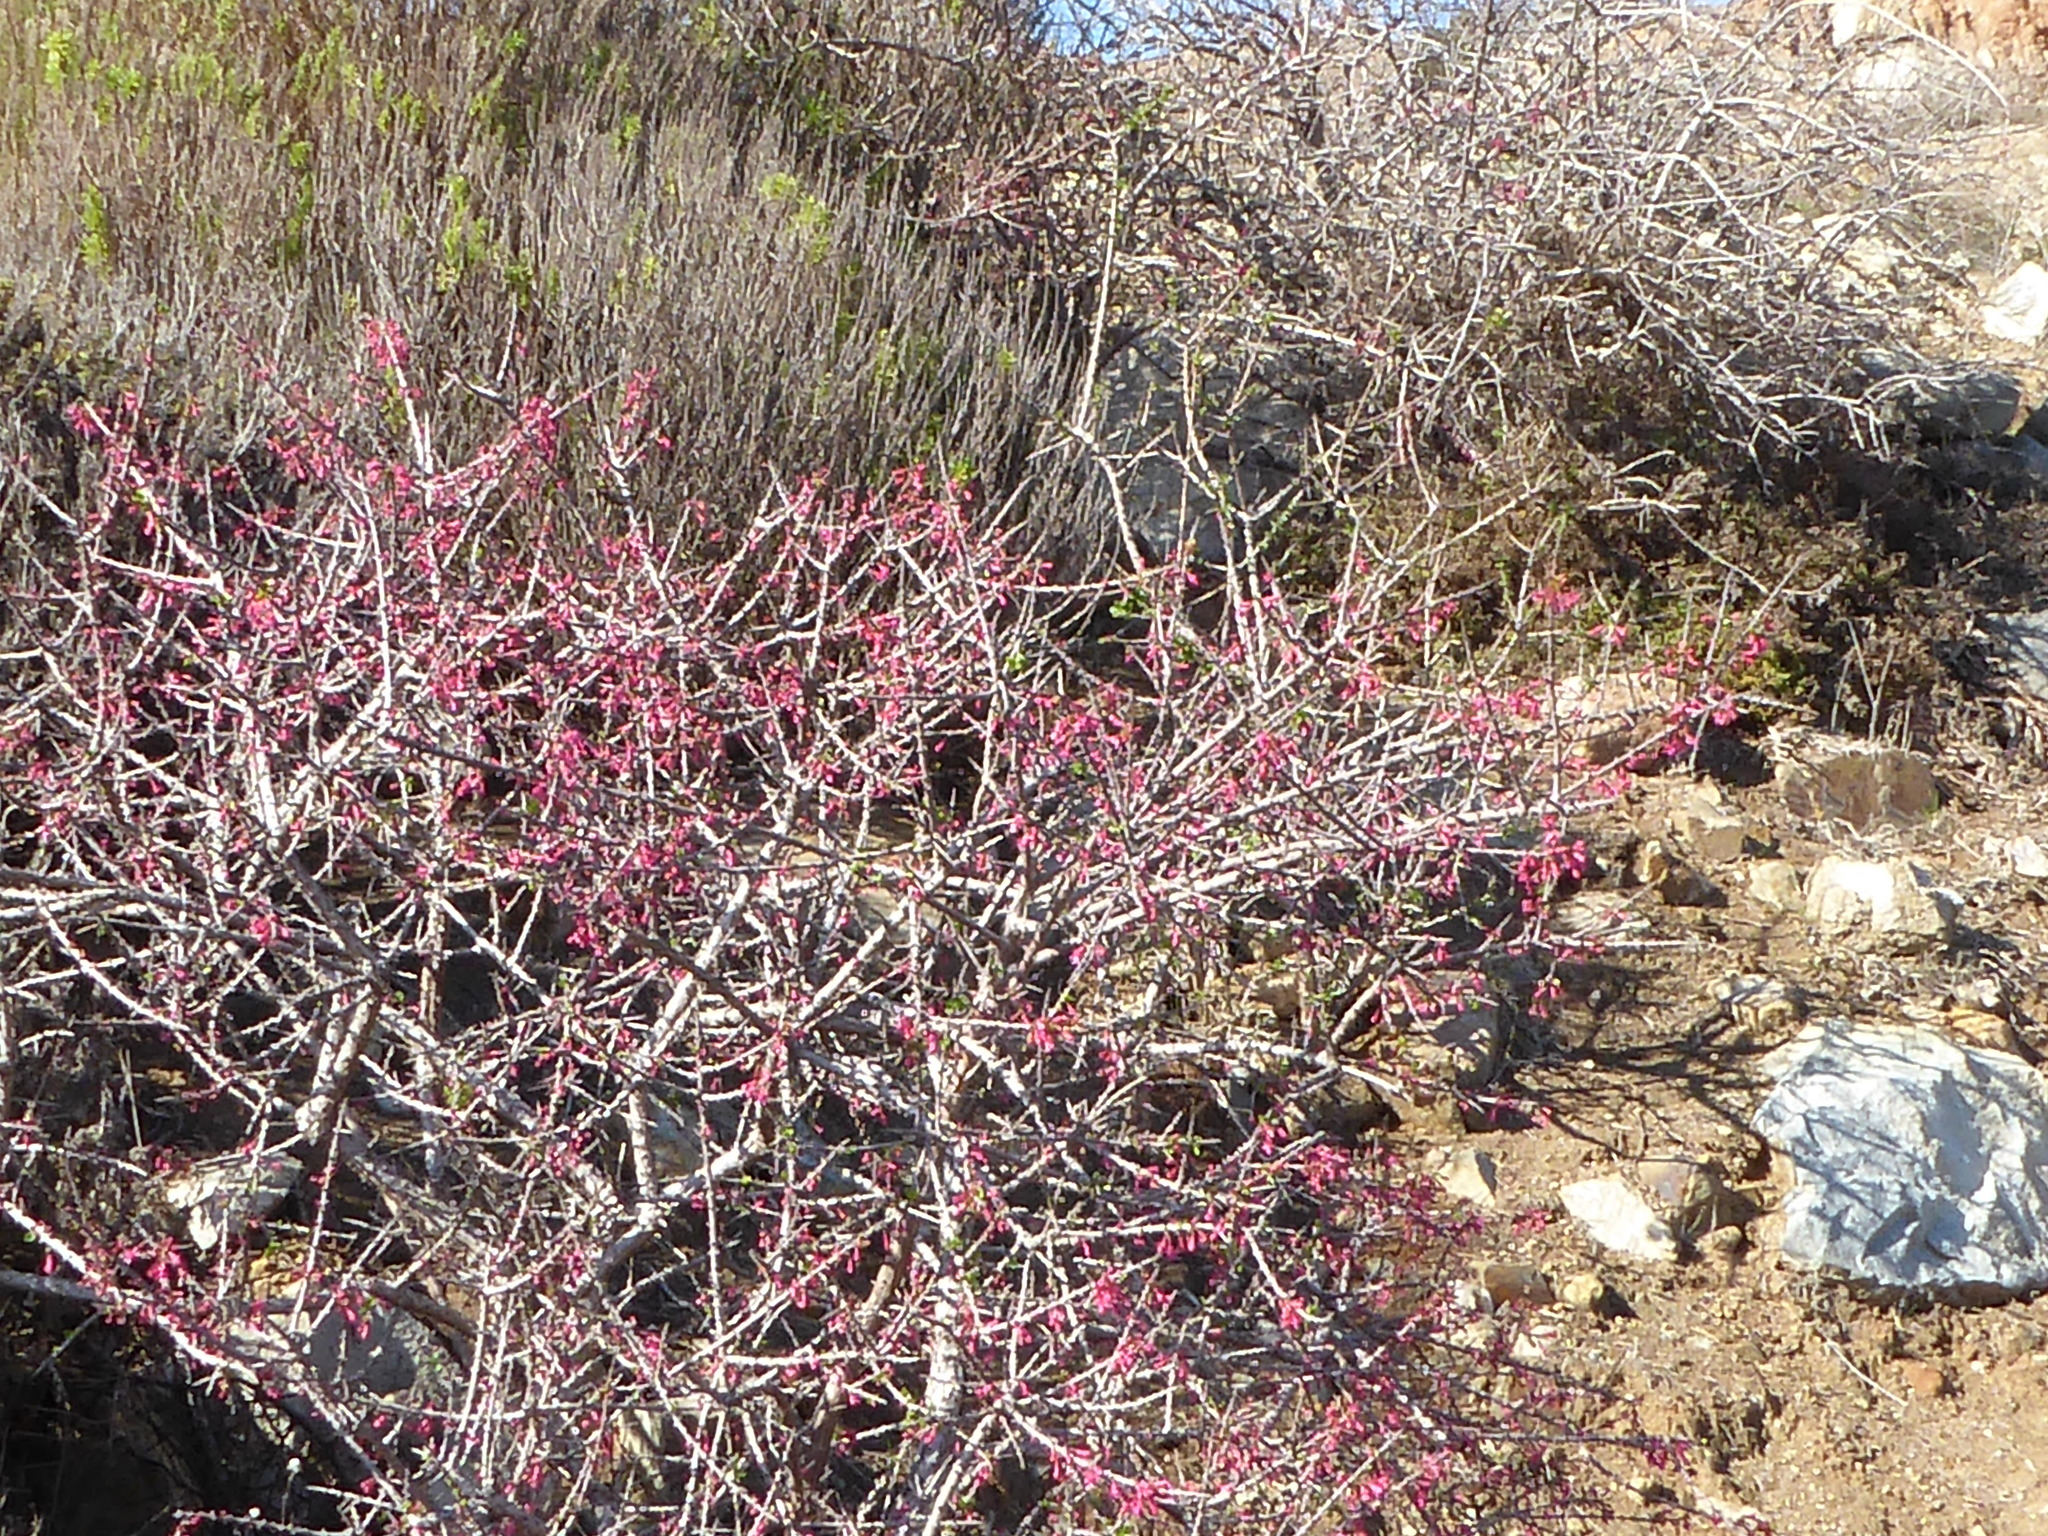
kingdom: Plantae
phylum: Tracheophyta
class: Magnoliopsida
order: Myrtales
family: Onagraceae
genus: Fuchsia
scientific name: Fuchsia lycioides
